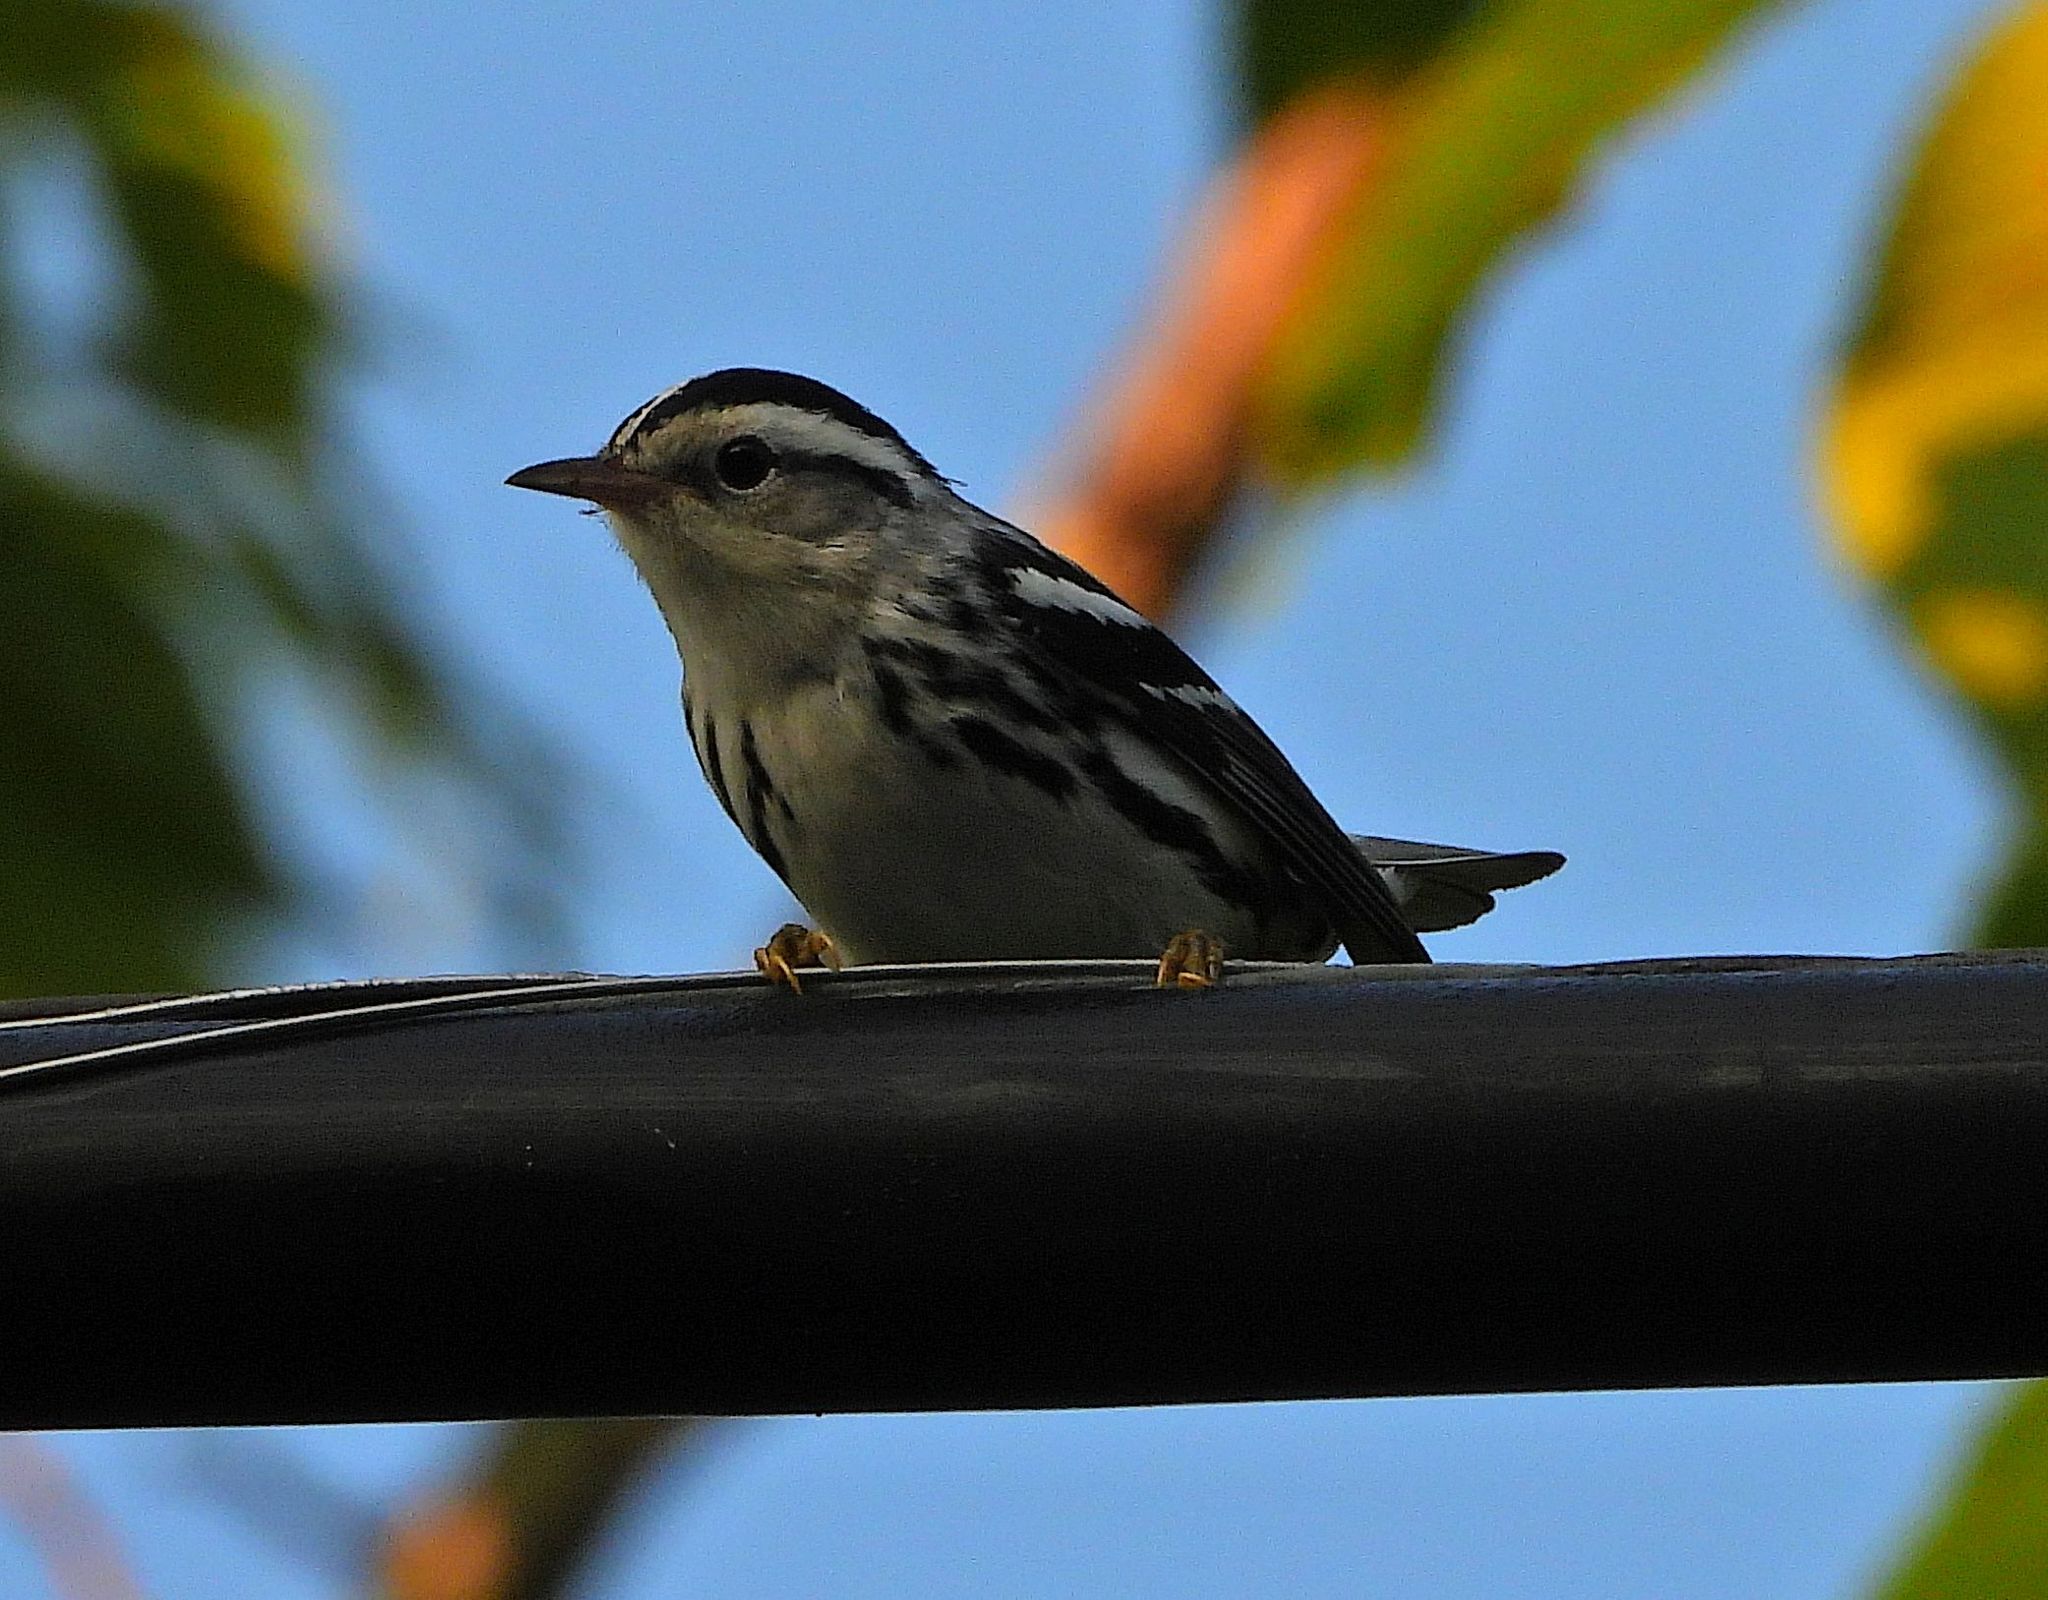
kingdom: Animalia
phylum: Chordata
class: Aves
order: Passeriformes
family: Parulidae
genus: Mniotilta
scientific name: Mniotilta varia
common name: Black-and-white warbler
